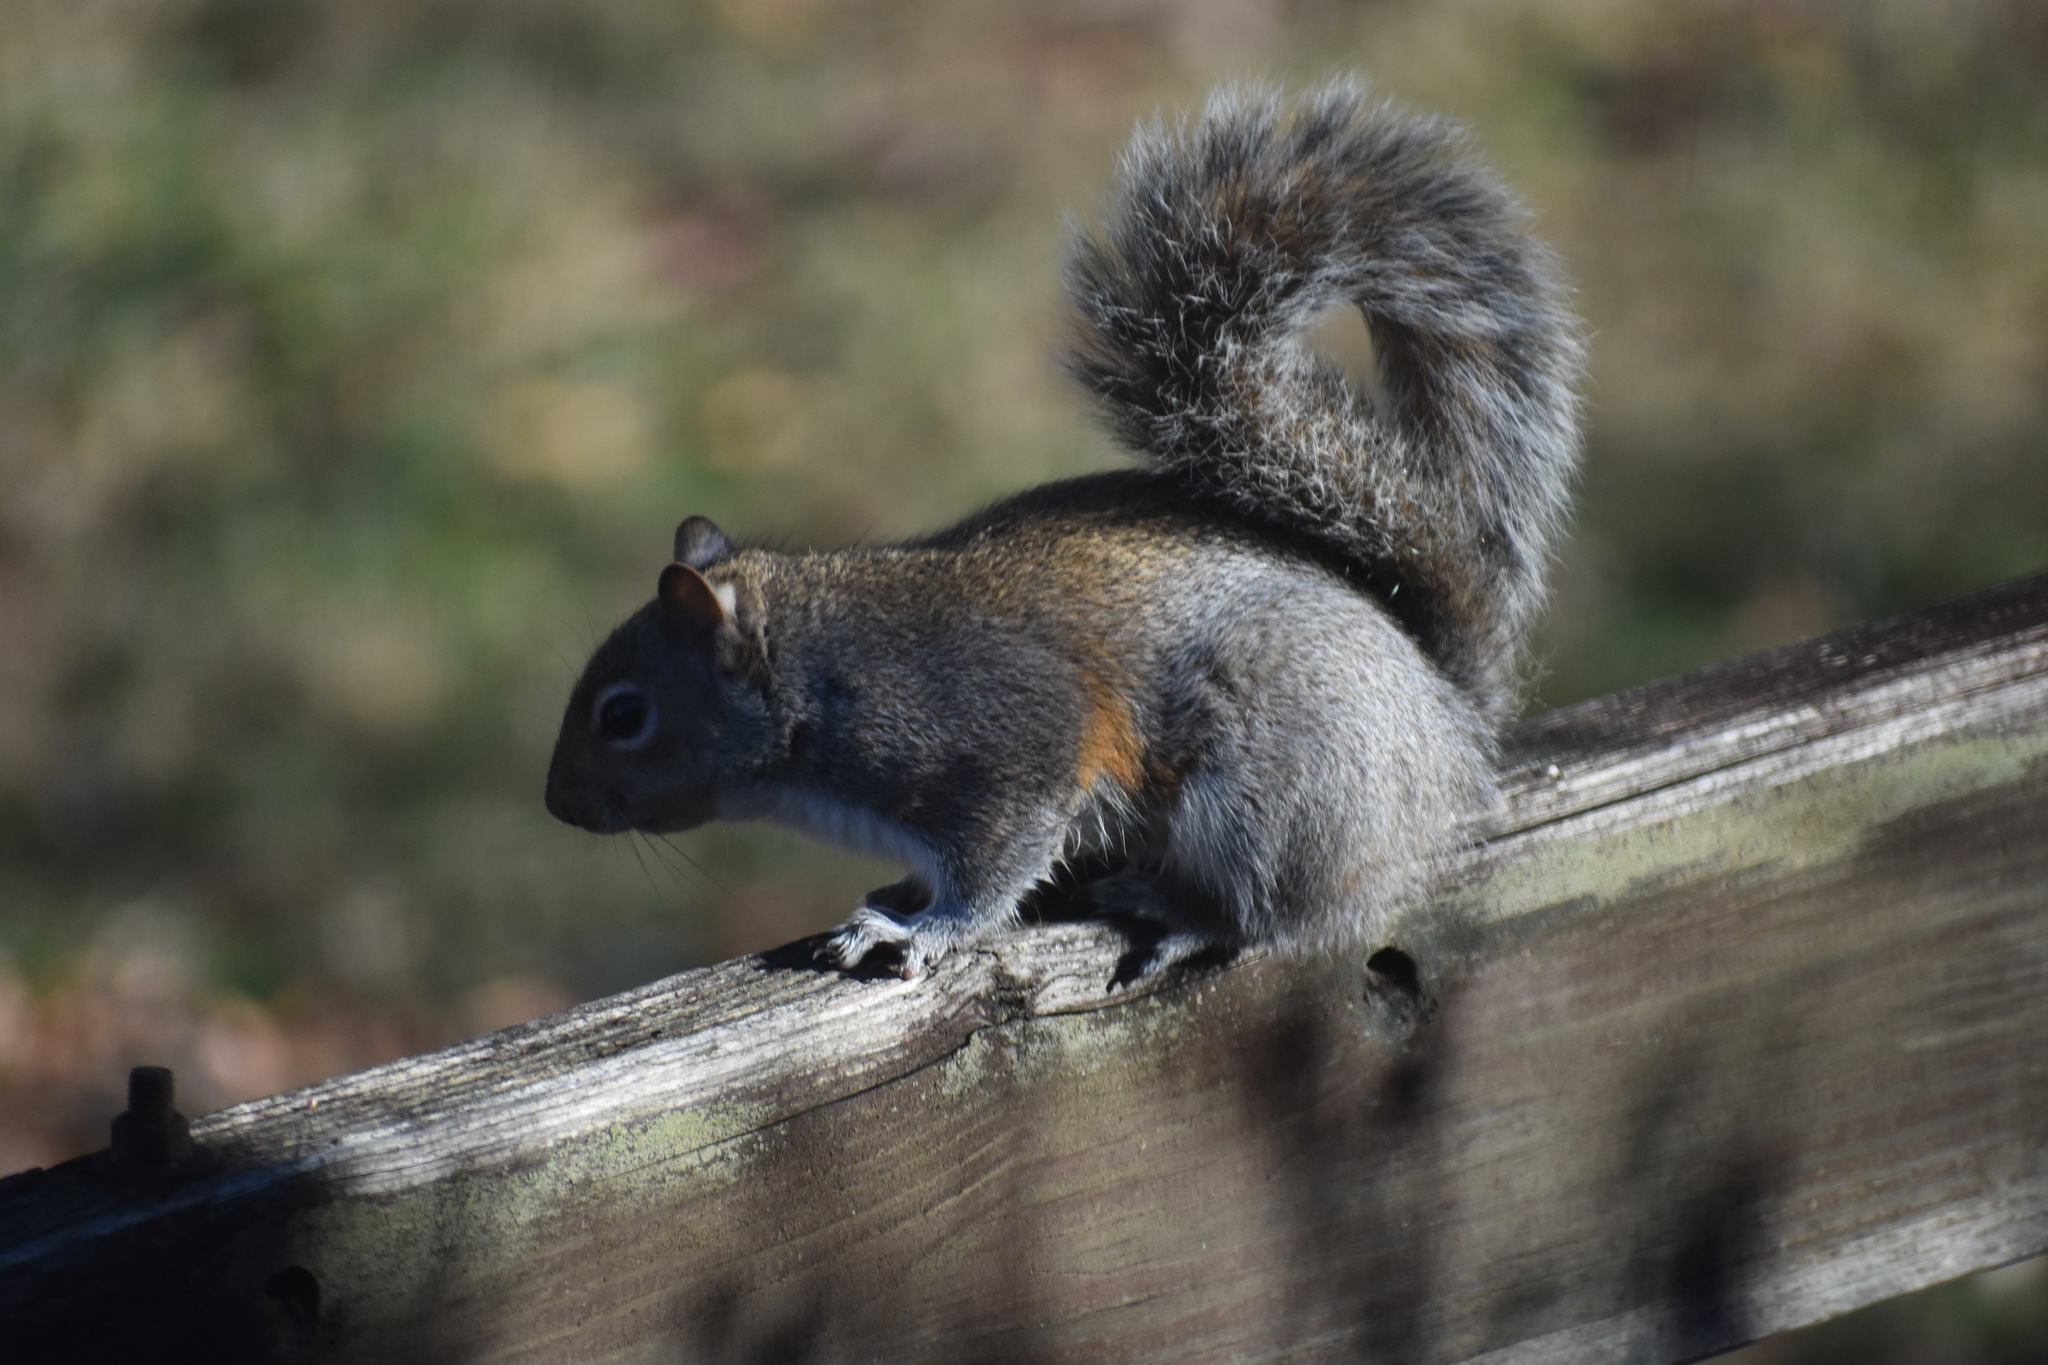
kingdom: Animalia
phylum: Chordata
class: Mammalia
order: Rodentia
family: Sciuridae
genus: Sciurus
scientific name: Sciurus carolinensis
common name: Eastern gray squirrel
